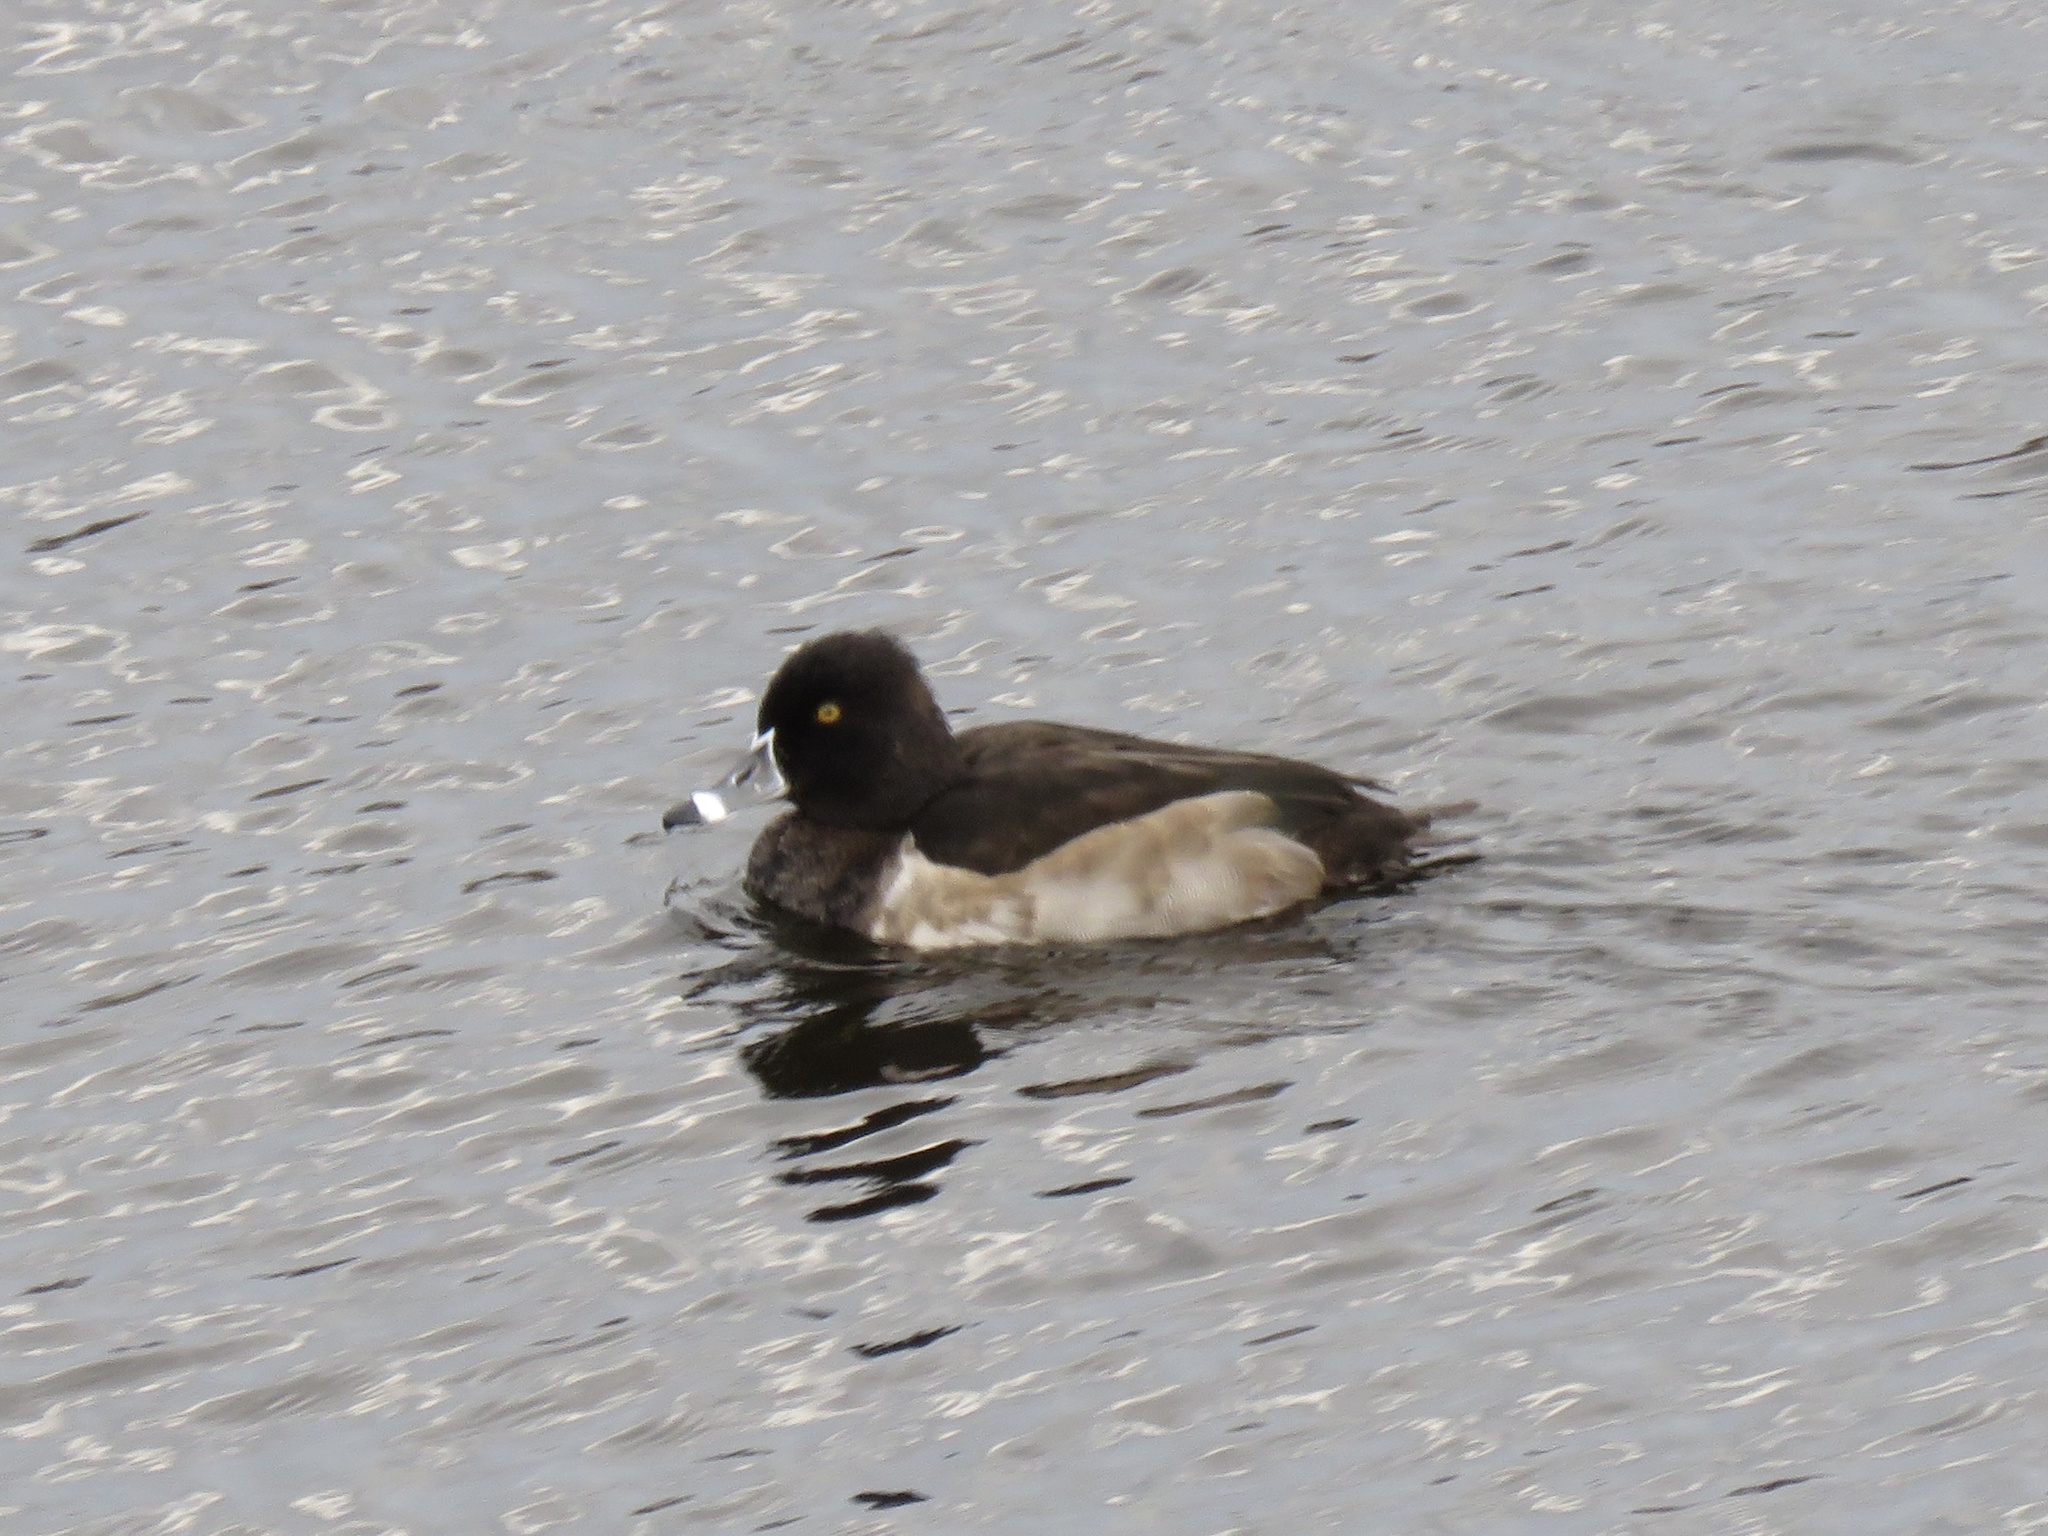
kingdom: Animalia
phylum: Chordata
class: Aves
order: Anseriformes
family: Anatidae
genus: Aythya
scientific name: Aythya collaris
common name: Ring-necked duck
